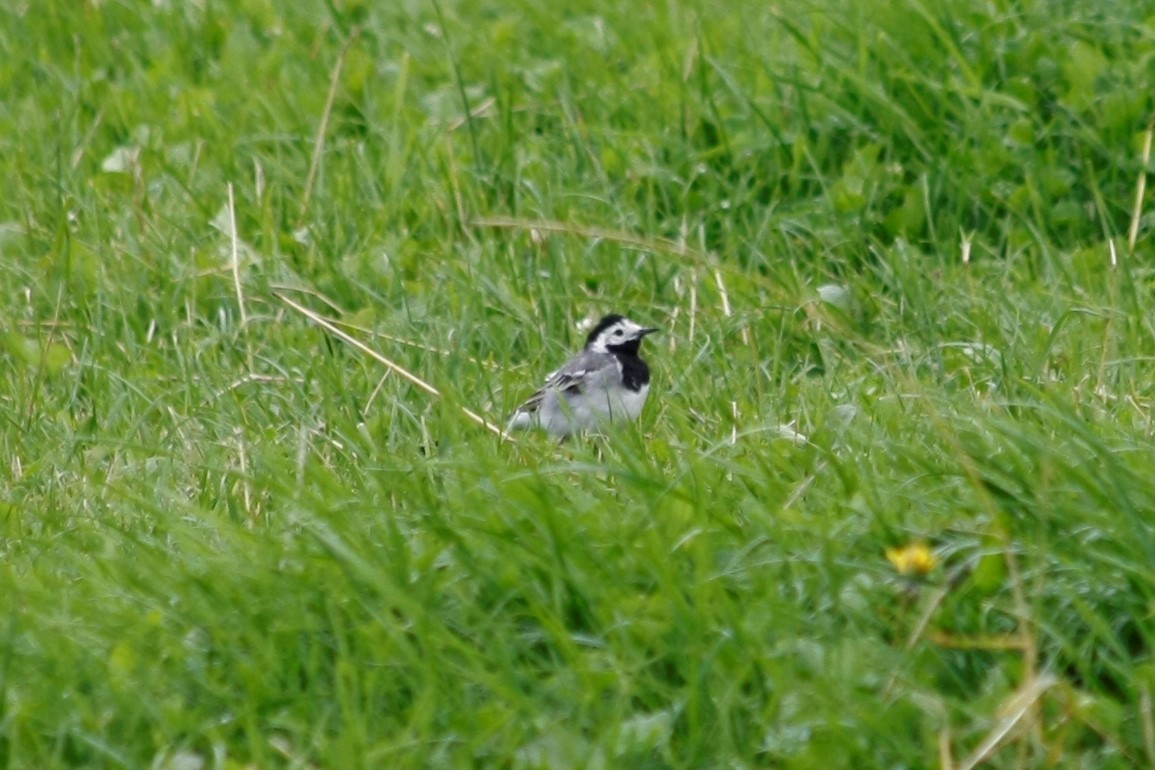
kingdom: Animalia
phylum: Chordata
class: Aves
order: Passeriformes
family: Motacillidae
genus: Motacilla
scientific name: Motacilla alba
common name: White wagtail
